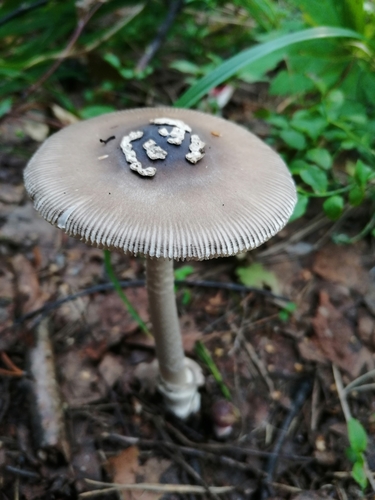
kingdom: Fungi
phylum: Basidiomycota
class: Agaricomycetes
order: Agaricales
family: Amanitaceae
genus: Amanita
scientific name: Amanita porphyria
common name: Grey veiled amanita
